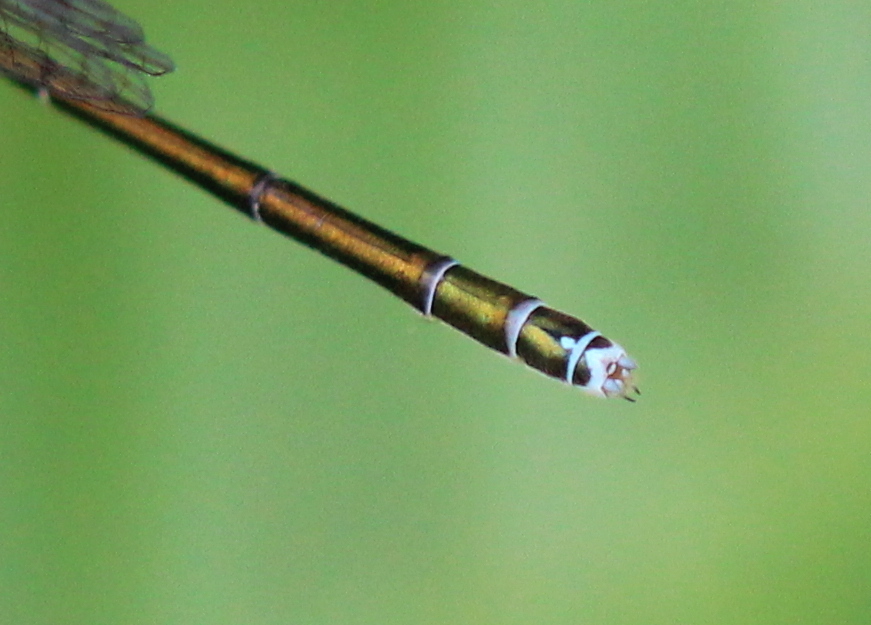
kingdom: Animalia
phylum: Arthropoda
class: Insecta
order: Odonata
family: Coenagrionidae
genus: Nehalennia
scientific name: Nehalennia irene
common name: Sedge sprite
